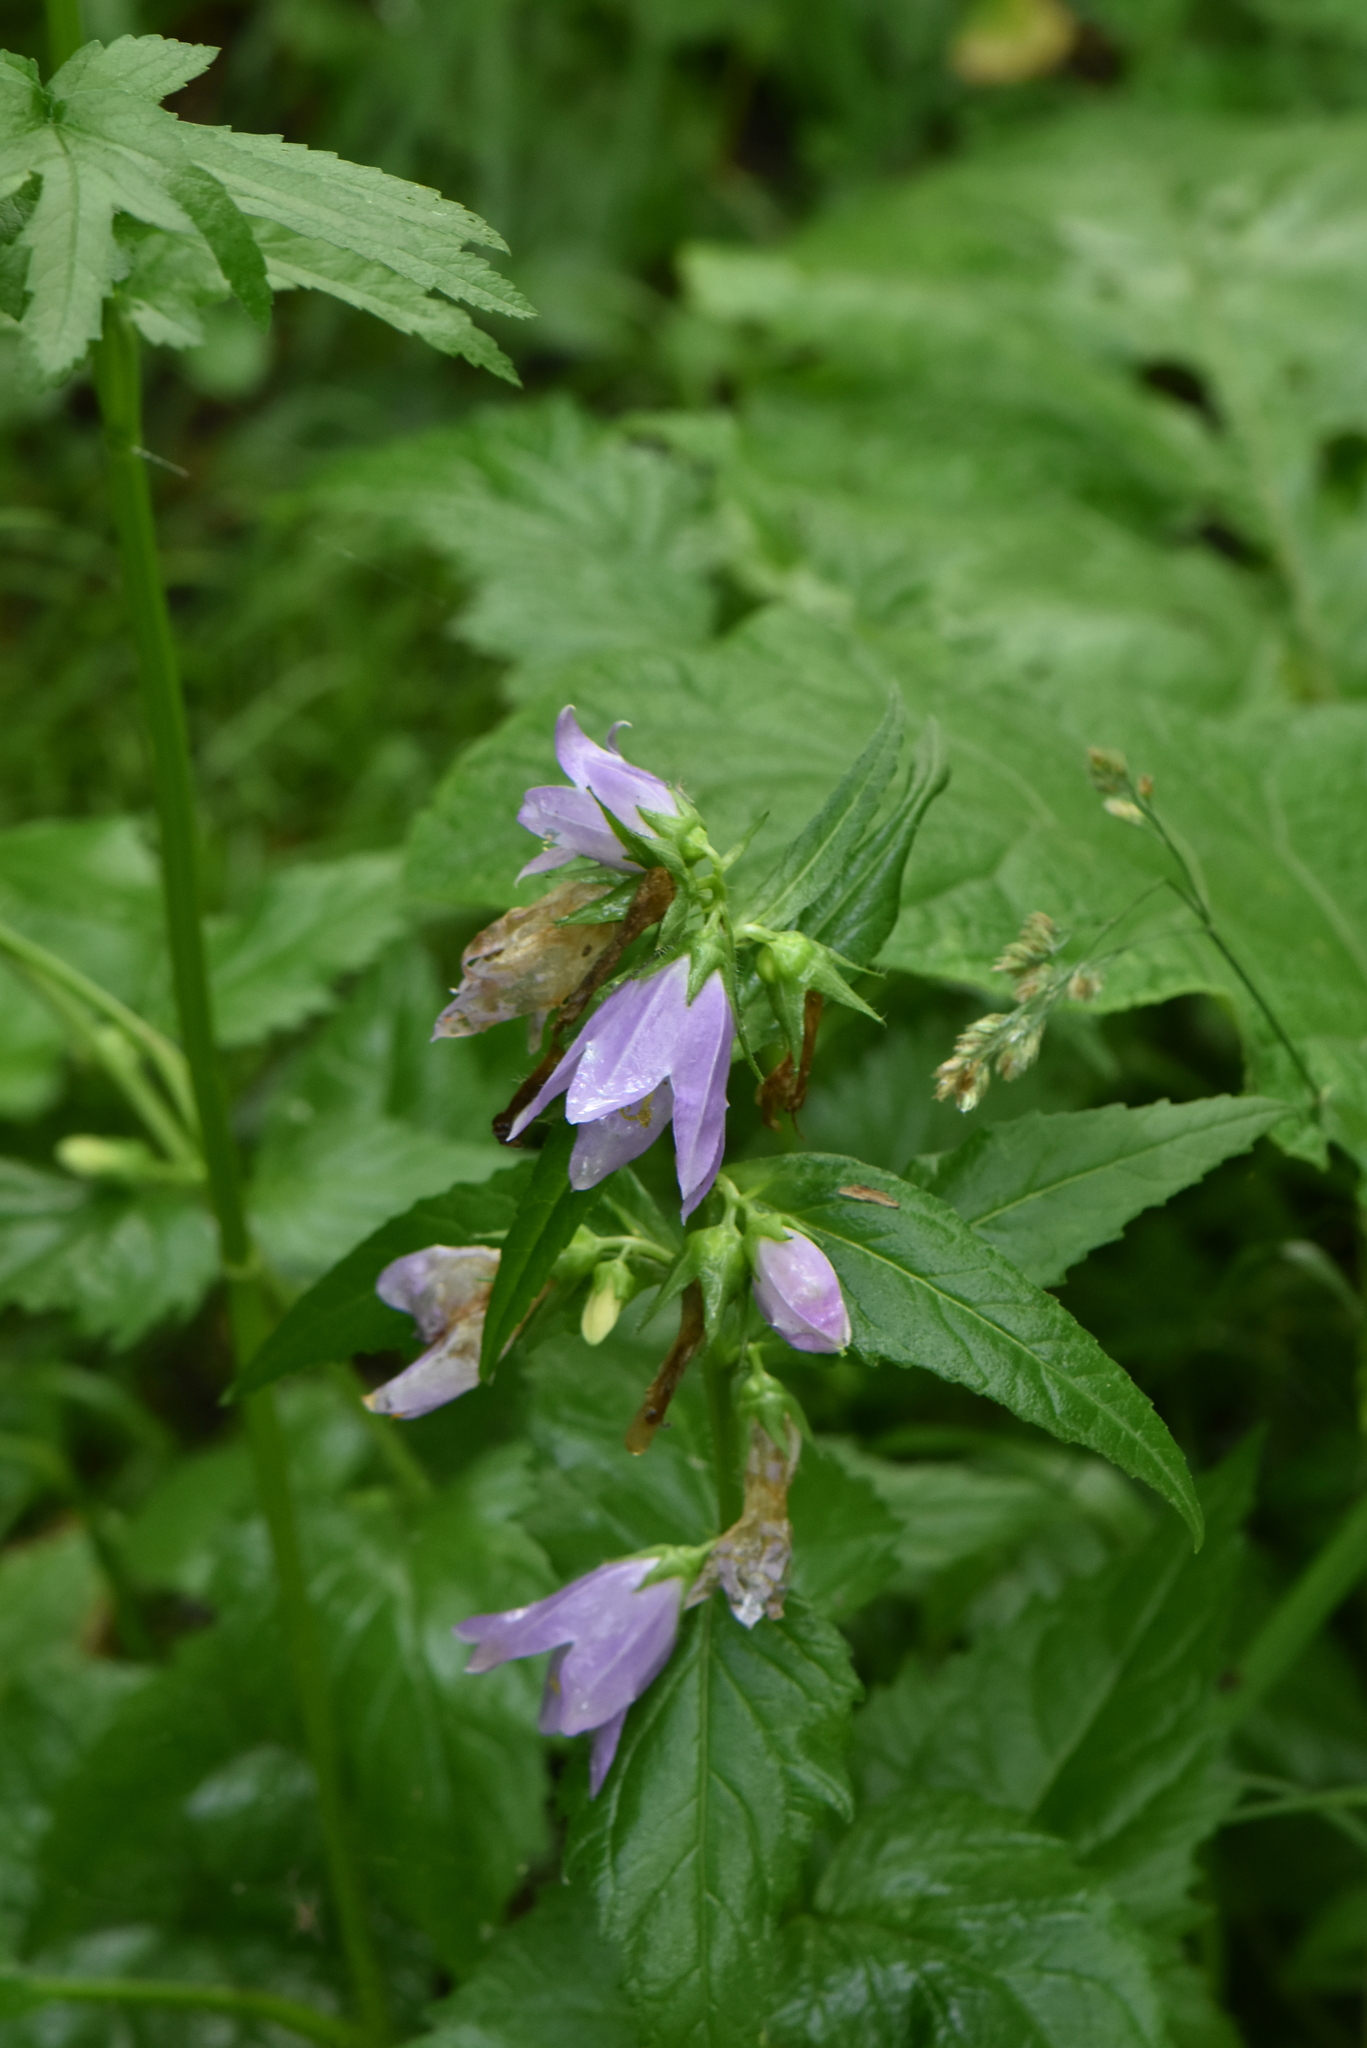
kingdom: Plantae
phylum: Tracheophyta
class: Magnoliopsida
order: Asterales
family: Campanulaceae
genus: Campanula
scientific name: Campanula trachelium
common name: Nettle-leaved bellflower
